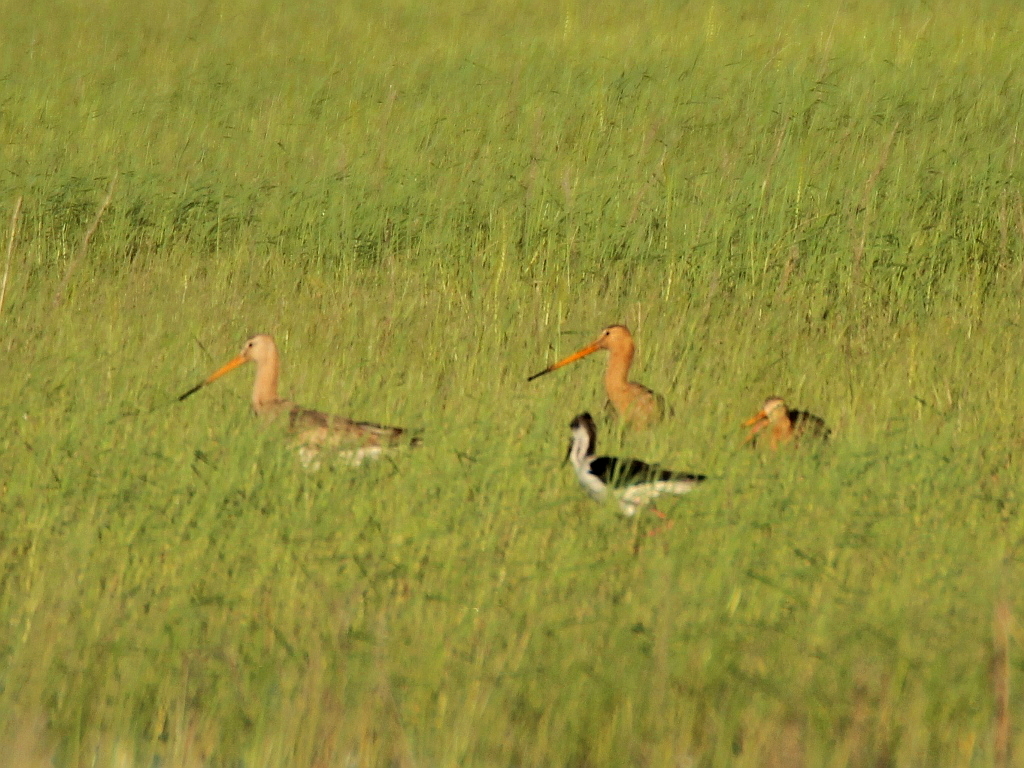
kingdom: Animalia
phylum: Chordata
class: Aves
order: Charadriiformes
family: Scolopacidae
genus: Limosa
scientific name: Limosa limosa
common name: Black-tailed godwit
